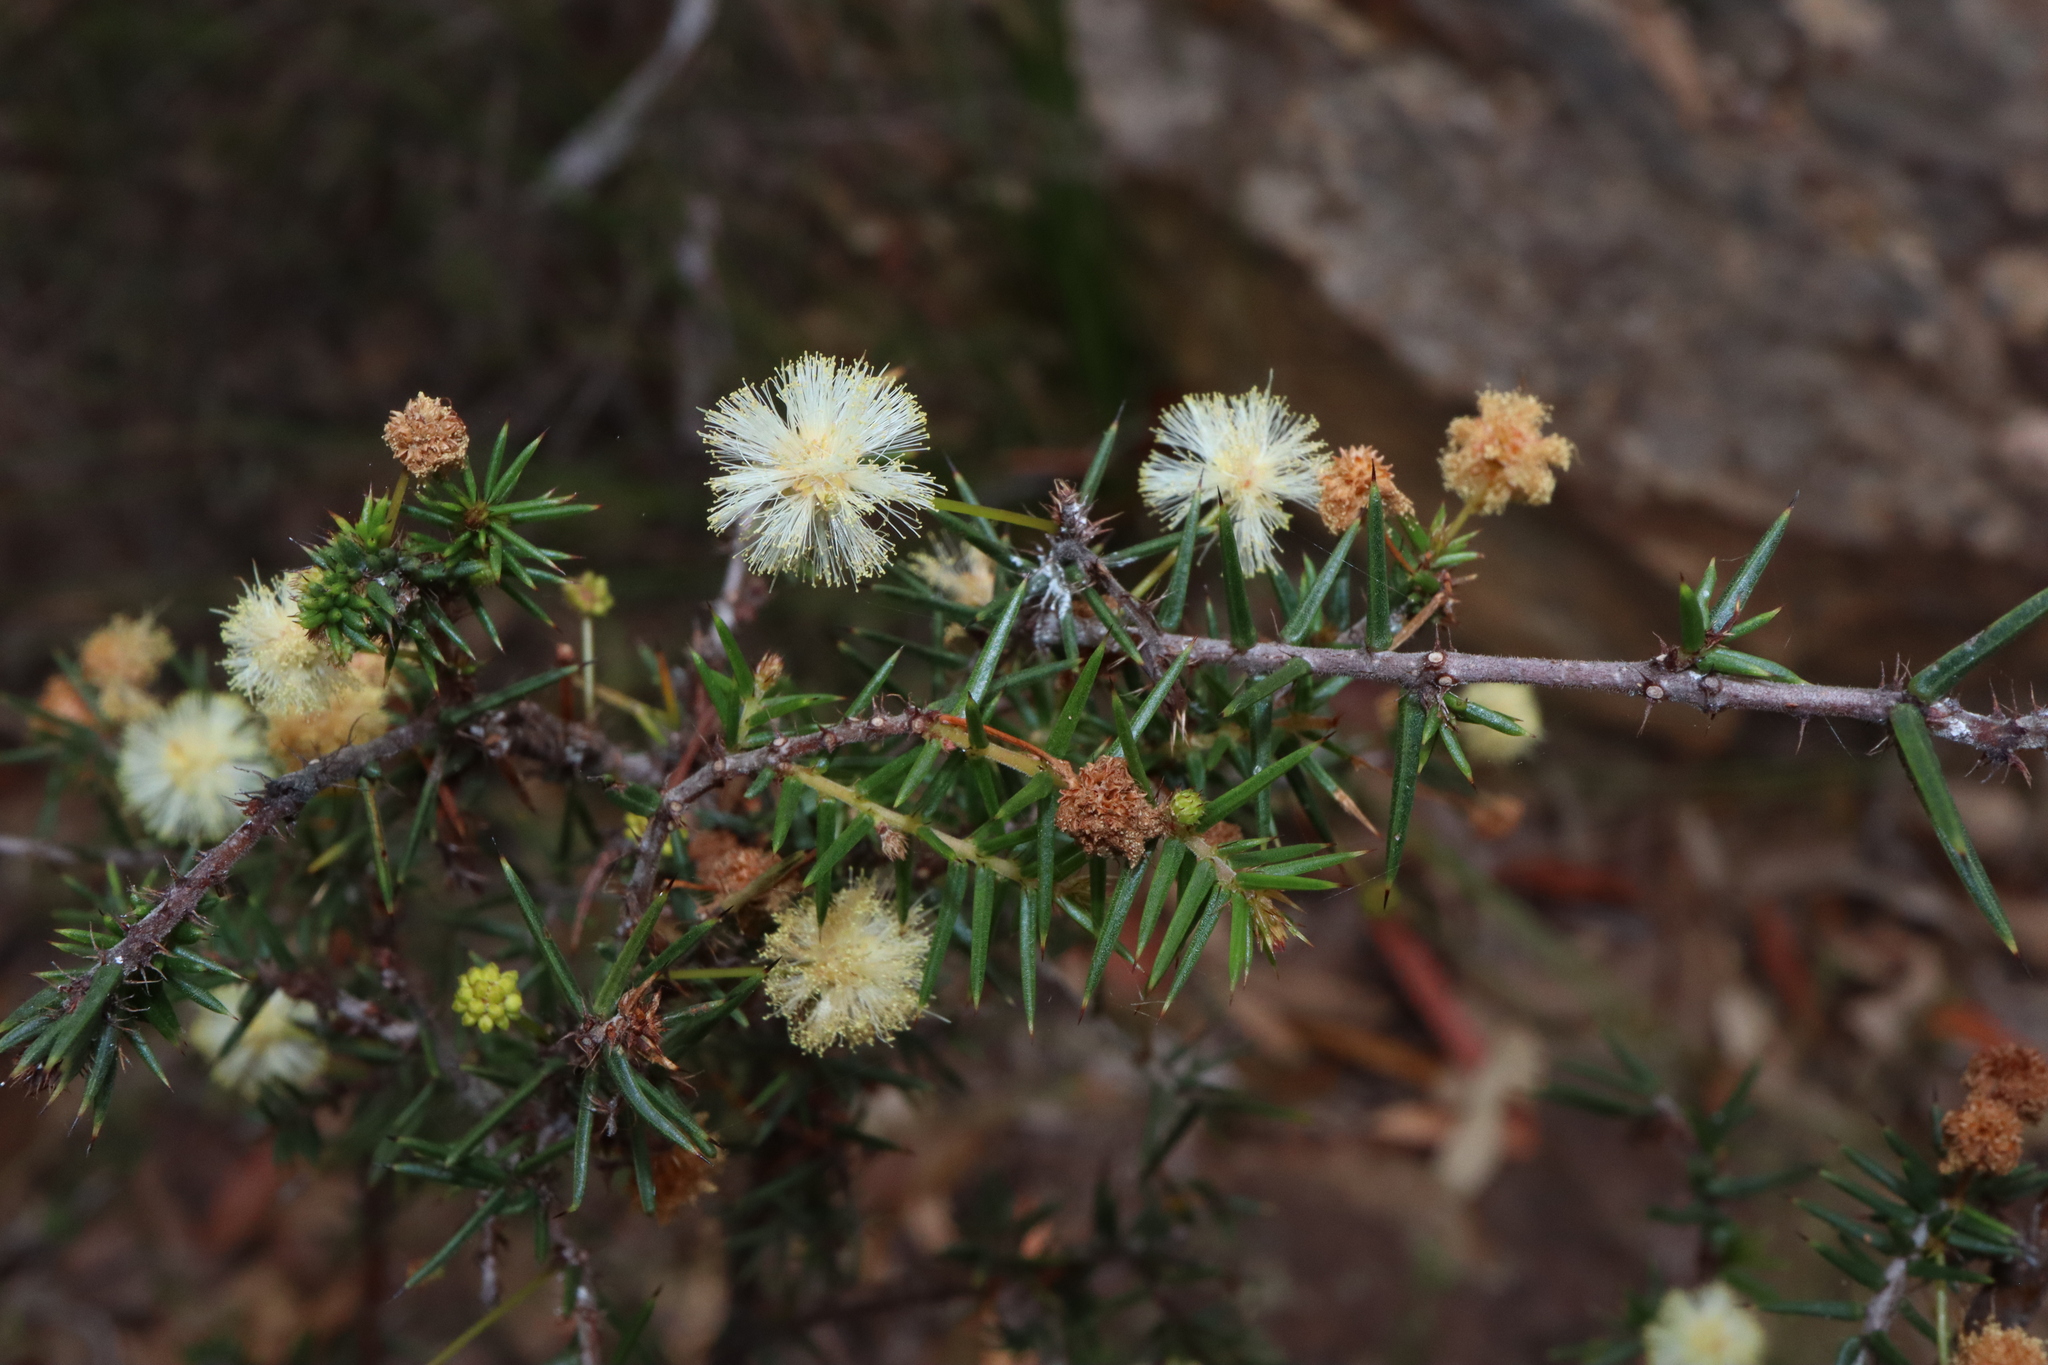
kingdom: Plantae
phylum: Tracheophyta
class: Magnoliopsida
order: Fabales
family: Fabaceae
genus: Acacia
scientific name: Acacia ulicifolia
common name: Juniper wattle
